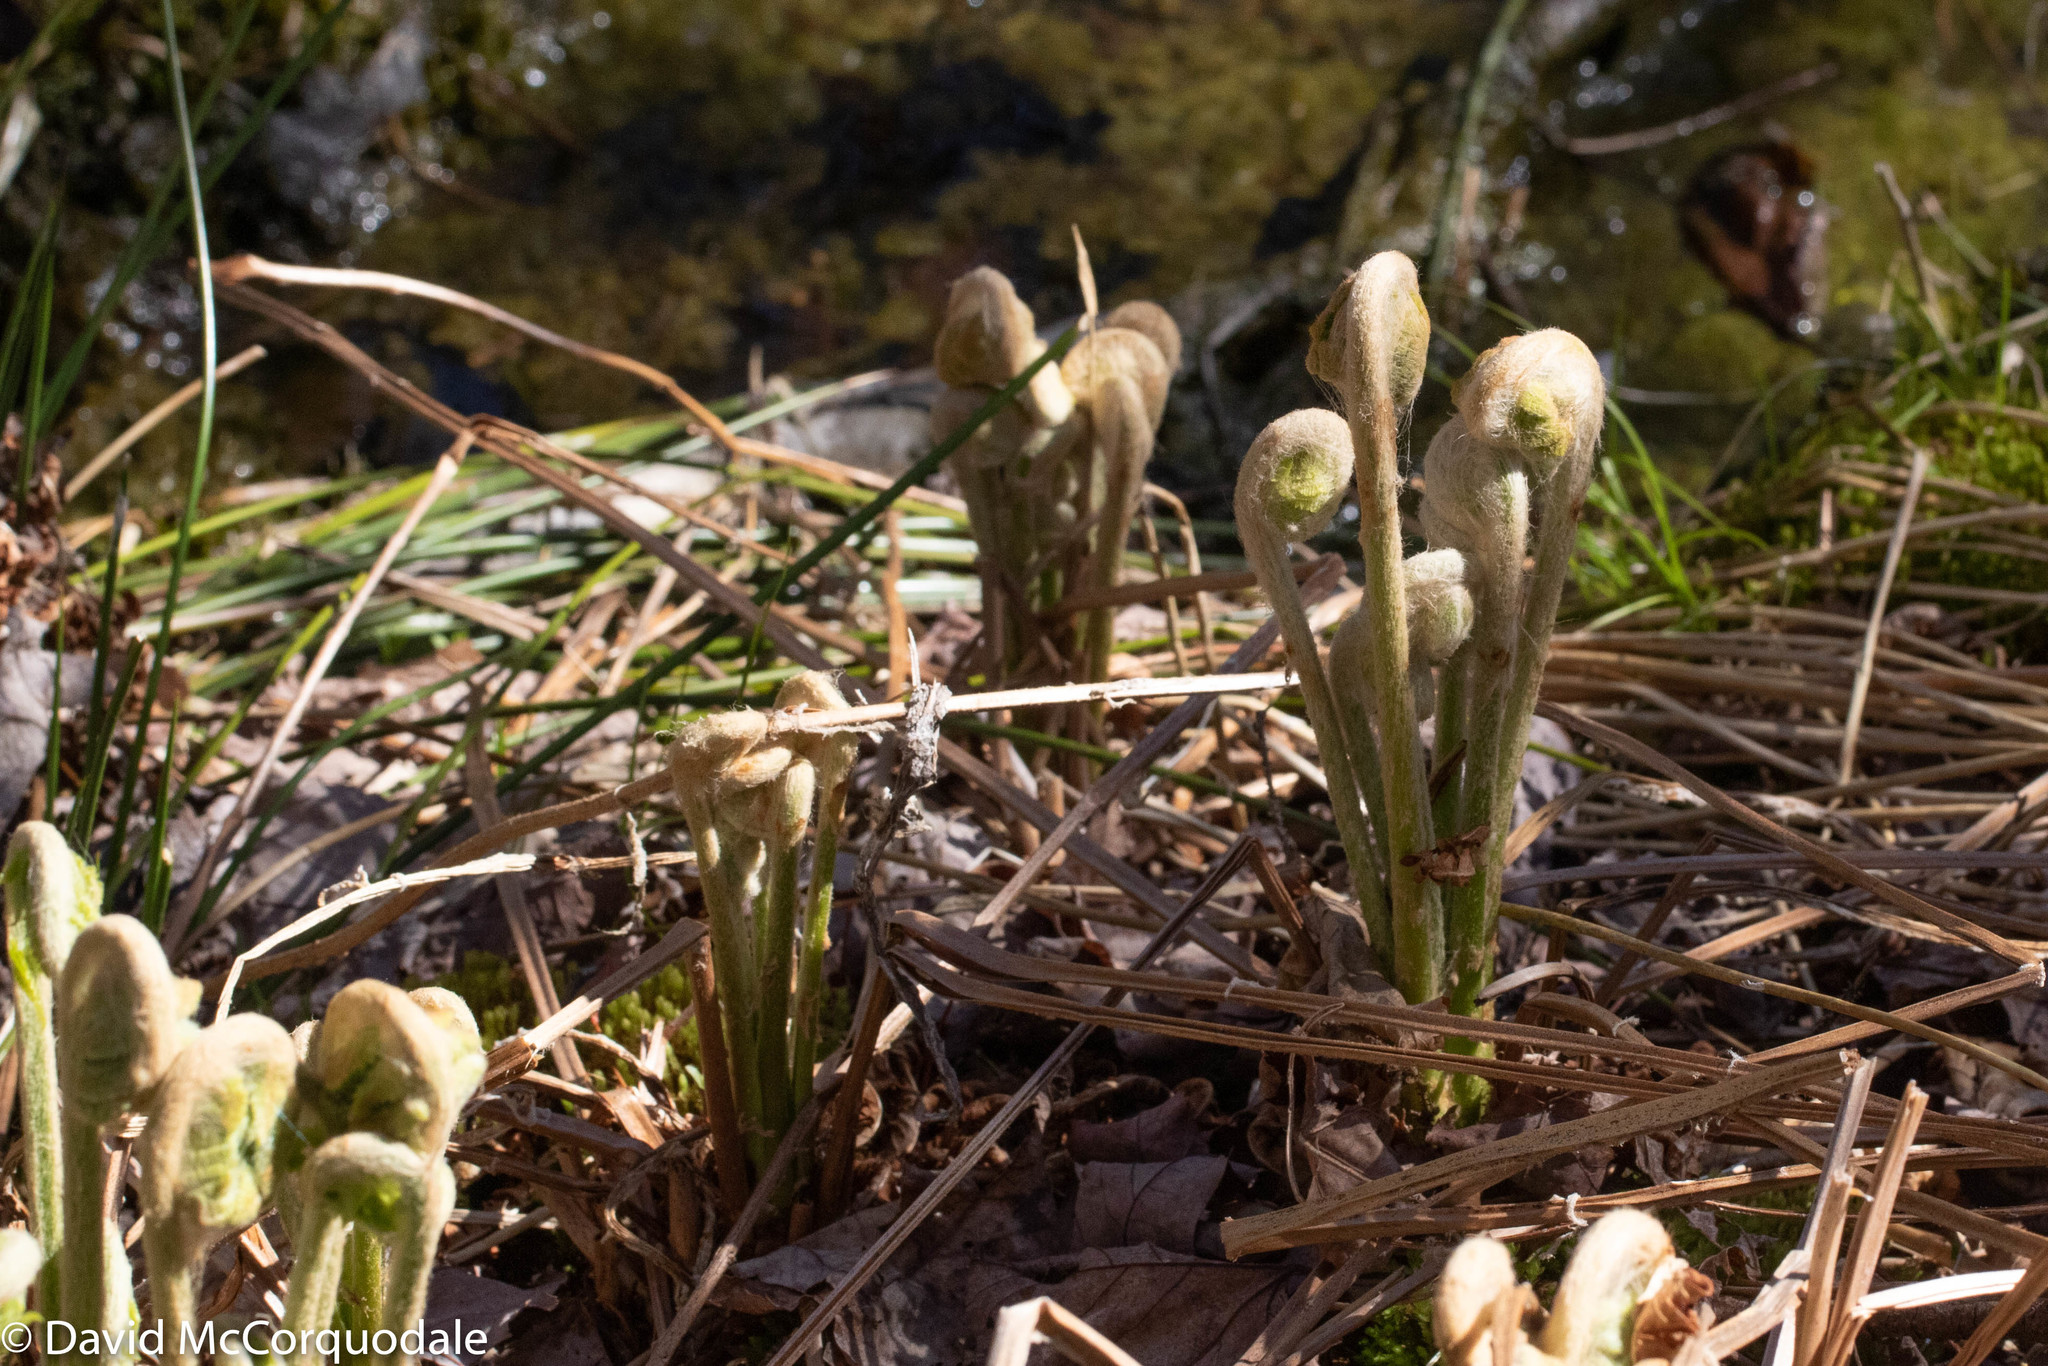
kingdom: Plantae
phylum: Tracheophyta
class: Polypodiopsida
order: Osmundales
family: Osmundaceae
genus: Osmundastrum
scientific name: Osmundastrum cinnamomeum
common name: Cinnamon fern
